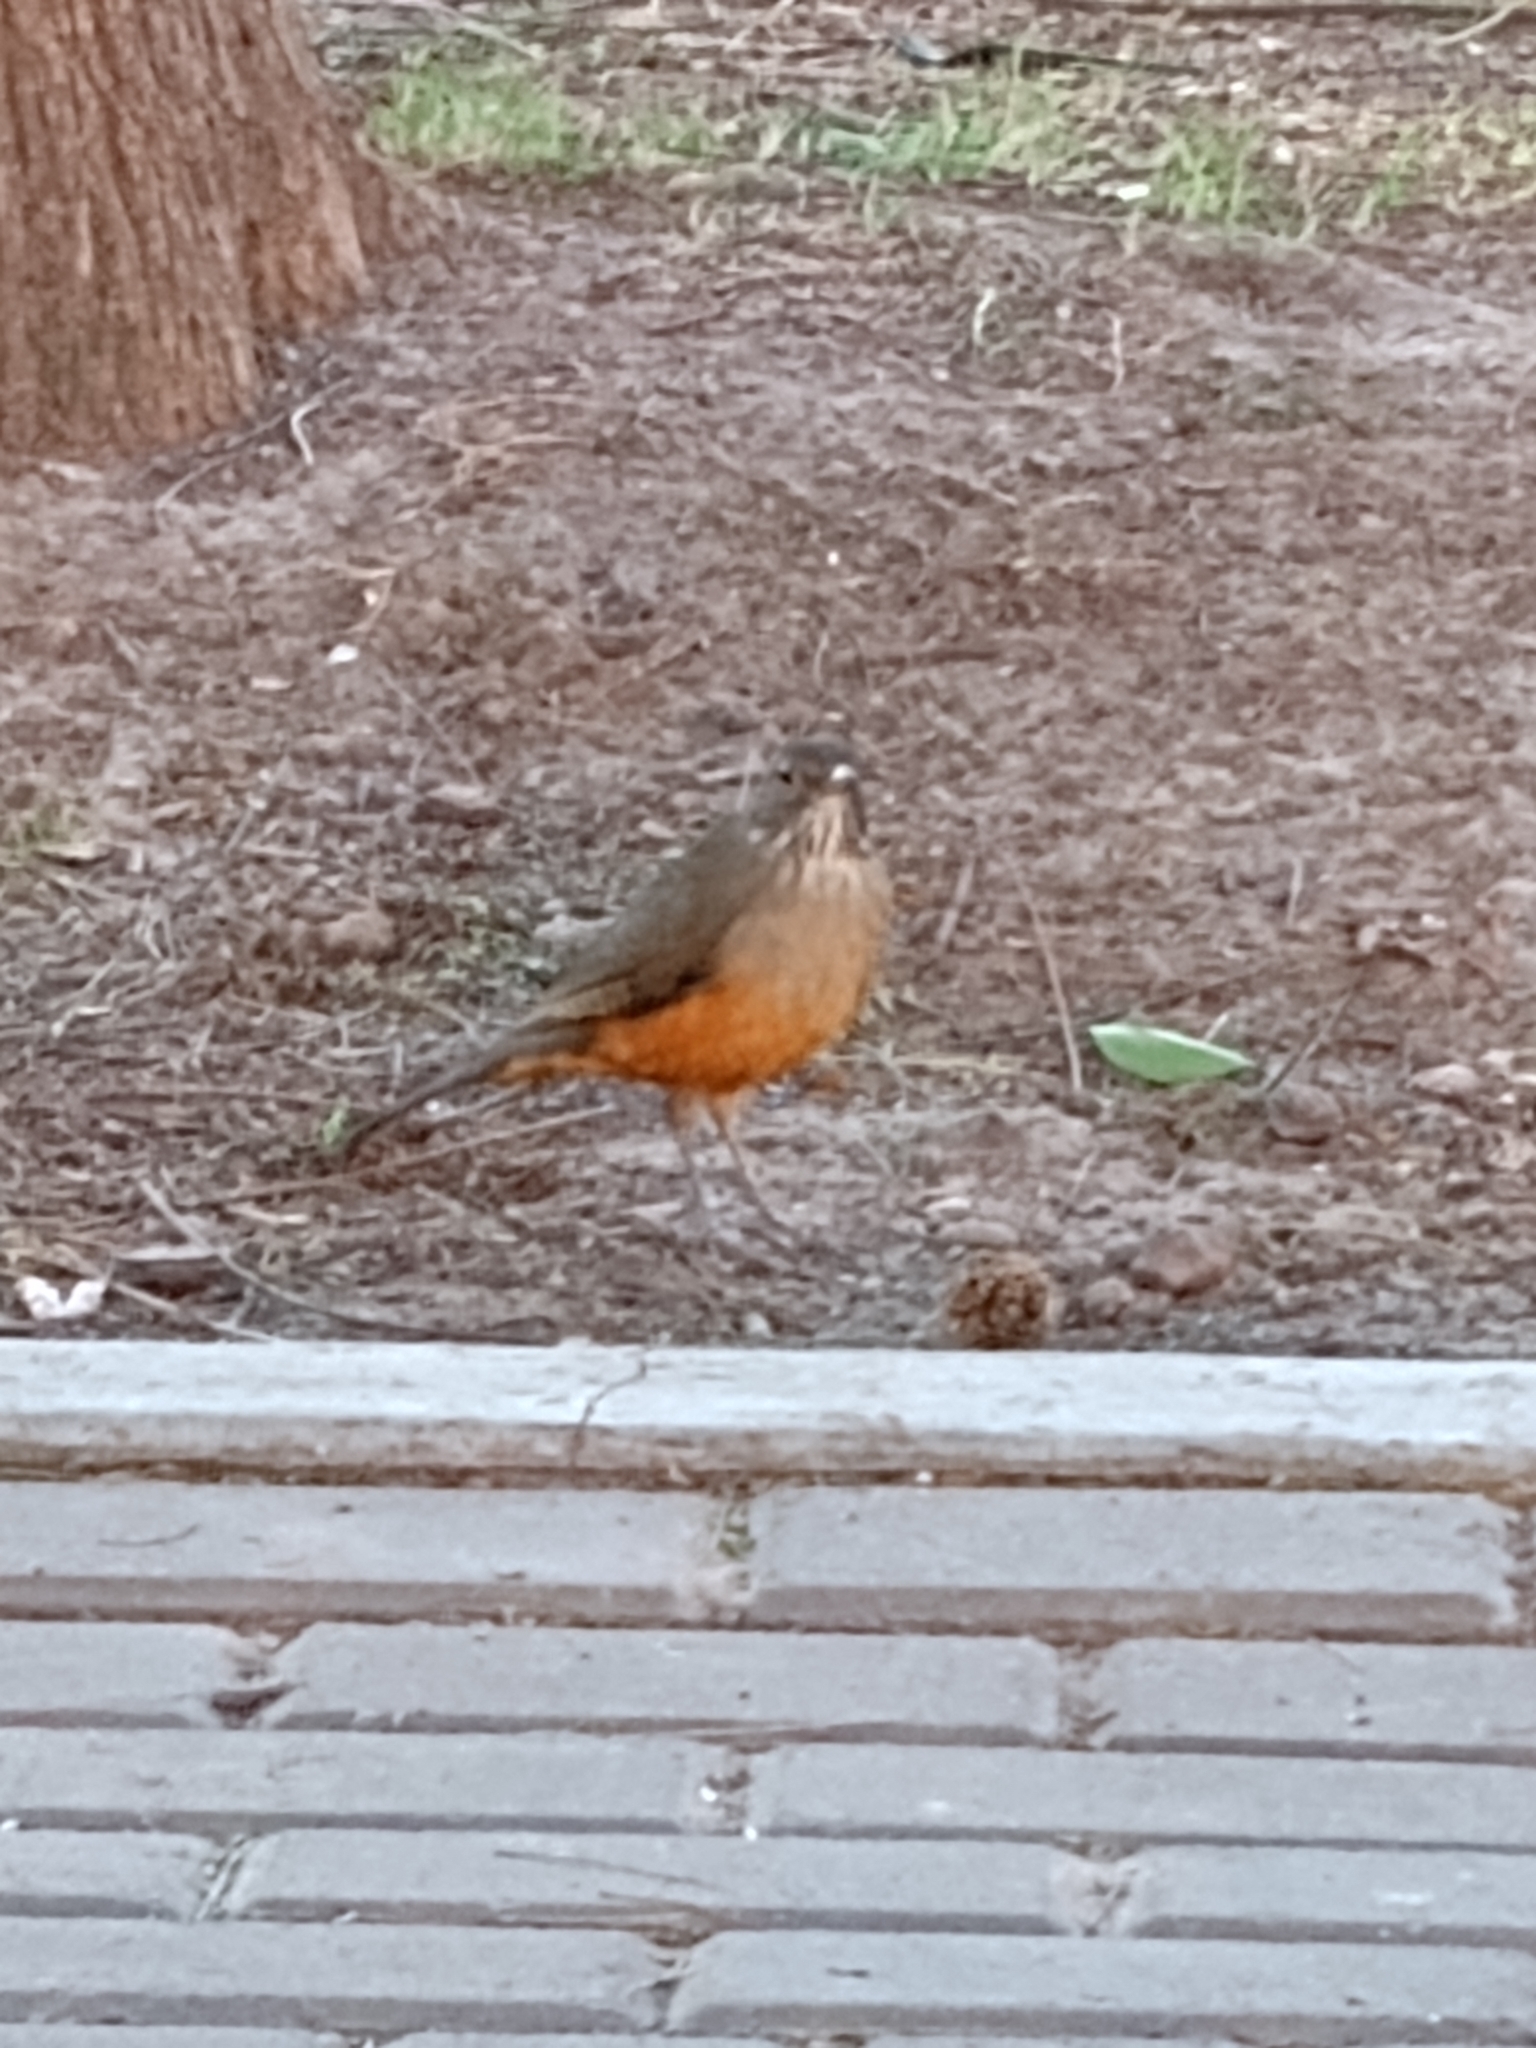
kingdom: Animalia
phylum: Chordata
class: Aves
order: Passeriformes
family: Turdidae
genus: Turdus
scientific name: Turdus rufiventris
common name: Rufous-bellied thrush
